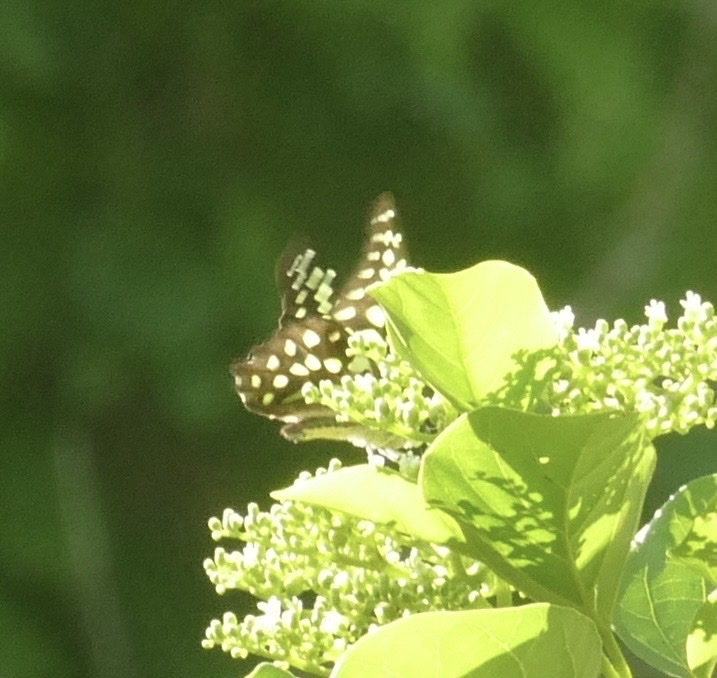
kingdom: Animalia
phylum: Arthropoda
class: Insecta
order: Lepidoptera
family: Papilionidae
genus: Graphium
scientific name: Graphium agamemnon
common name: Tailed jay
